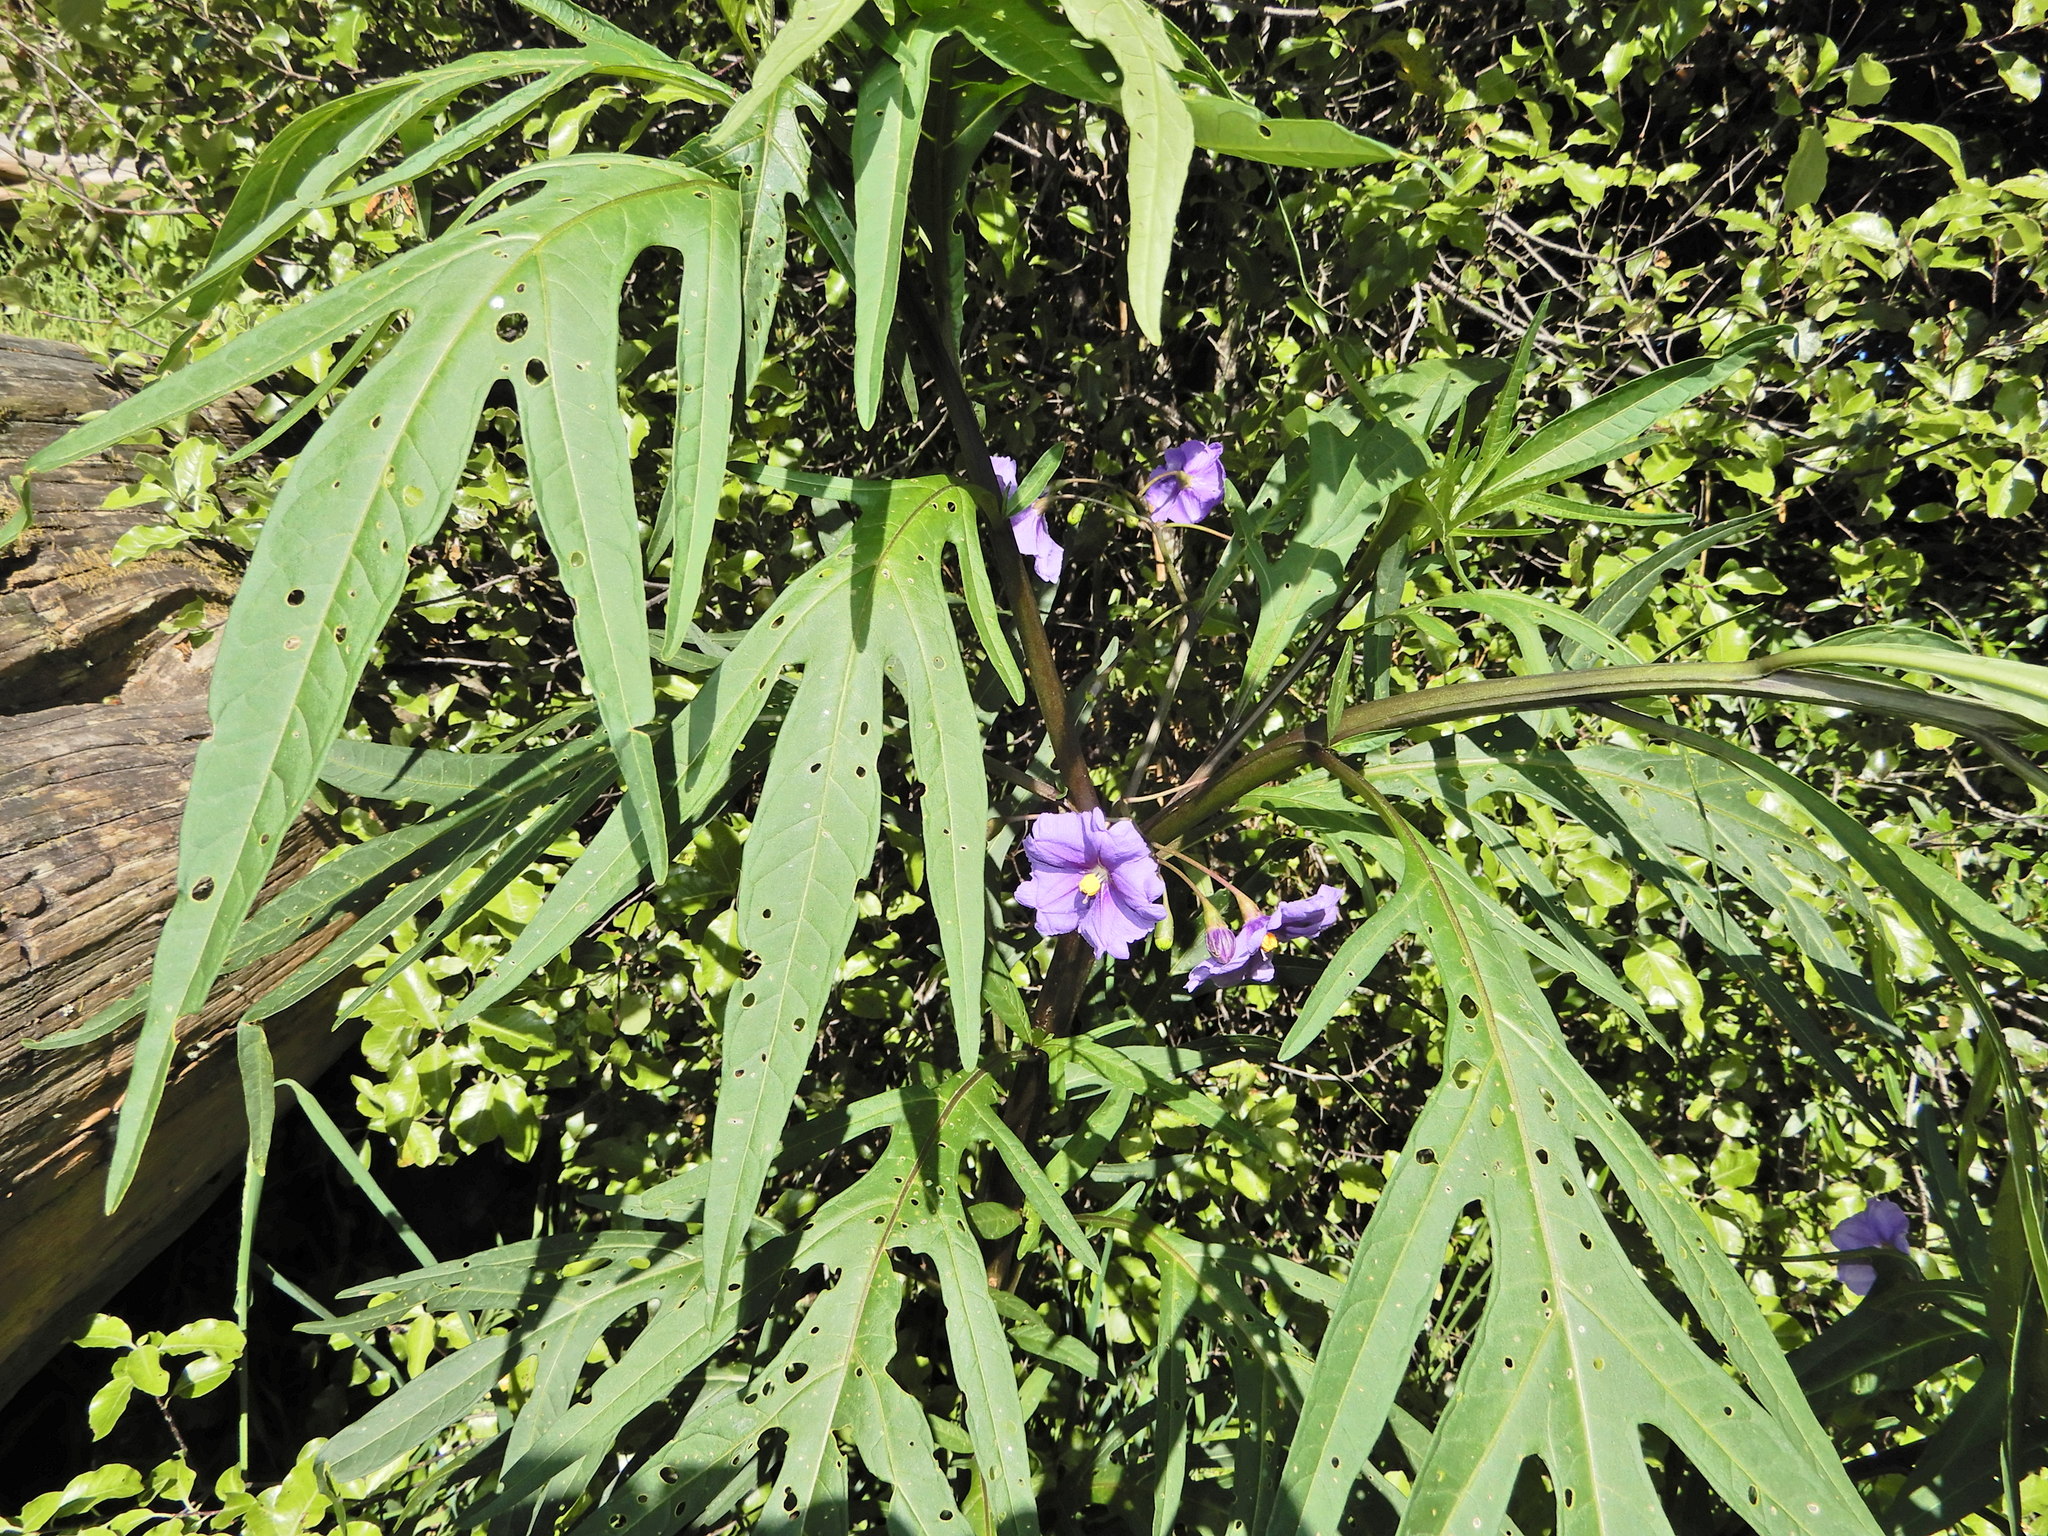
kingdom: Plantae
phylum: Tracheophyta
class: Magnoliopsida
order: Solanales
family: Solanaceae
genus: Solanum
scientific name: Solanum laciniatum
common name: Kangaroo-apple
